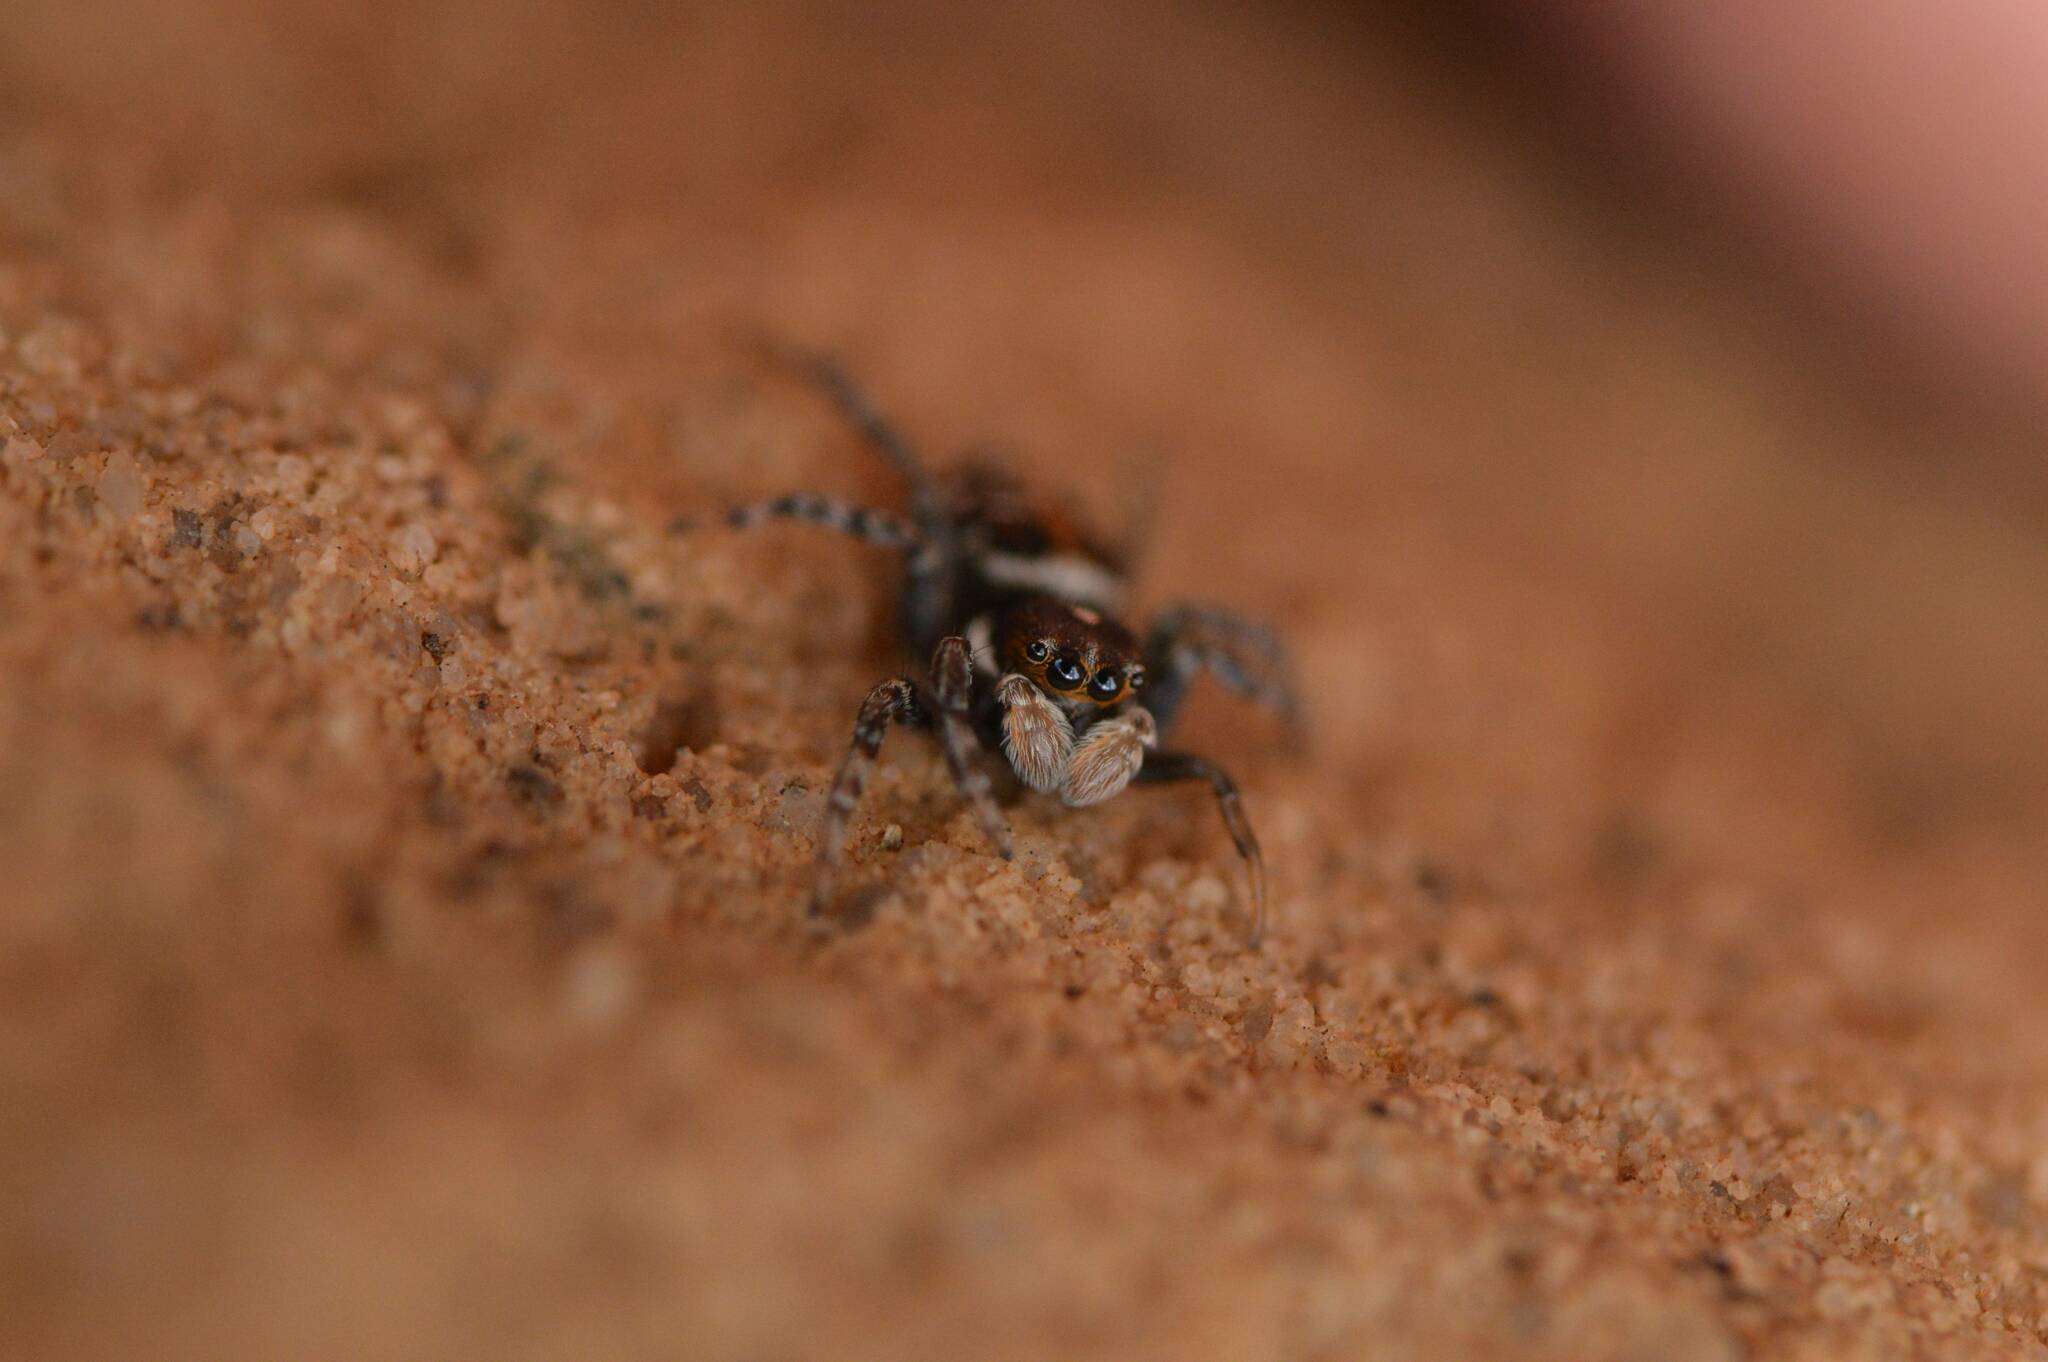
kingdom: Animalia
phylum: Arthropoda
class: Arachnida
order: Araneae
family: Salticidae
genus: Menemerus
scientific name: Menemerus semilimbatus
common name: Jumping spider
